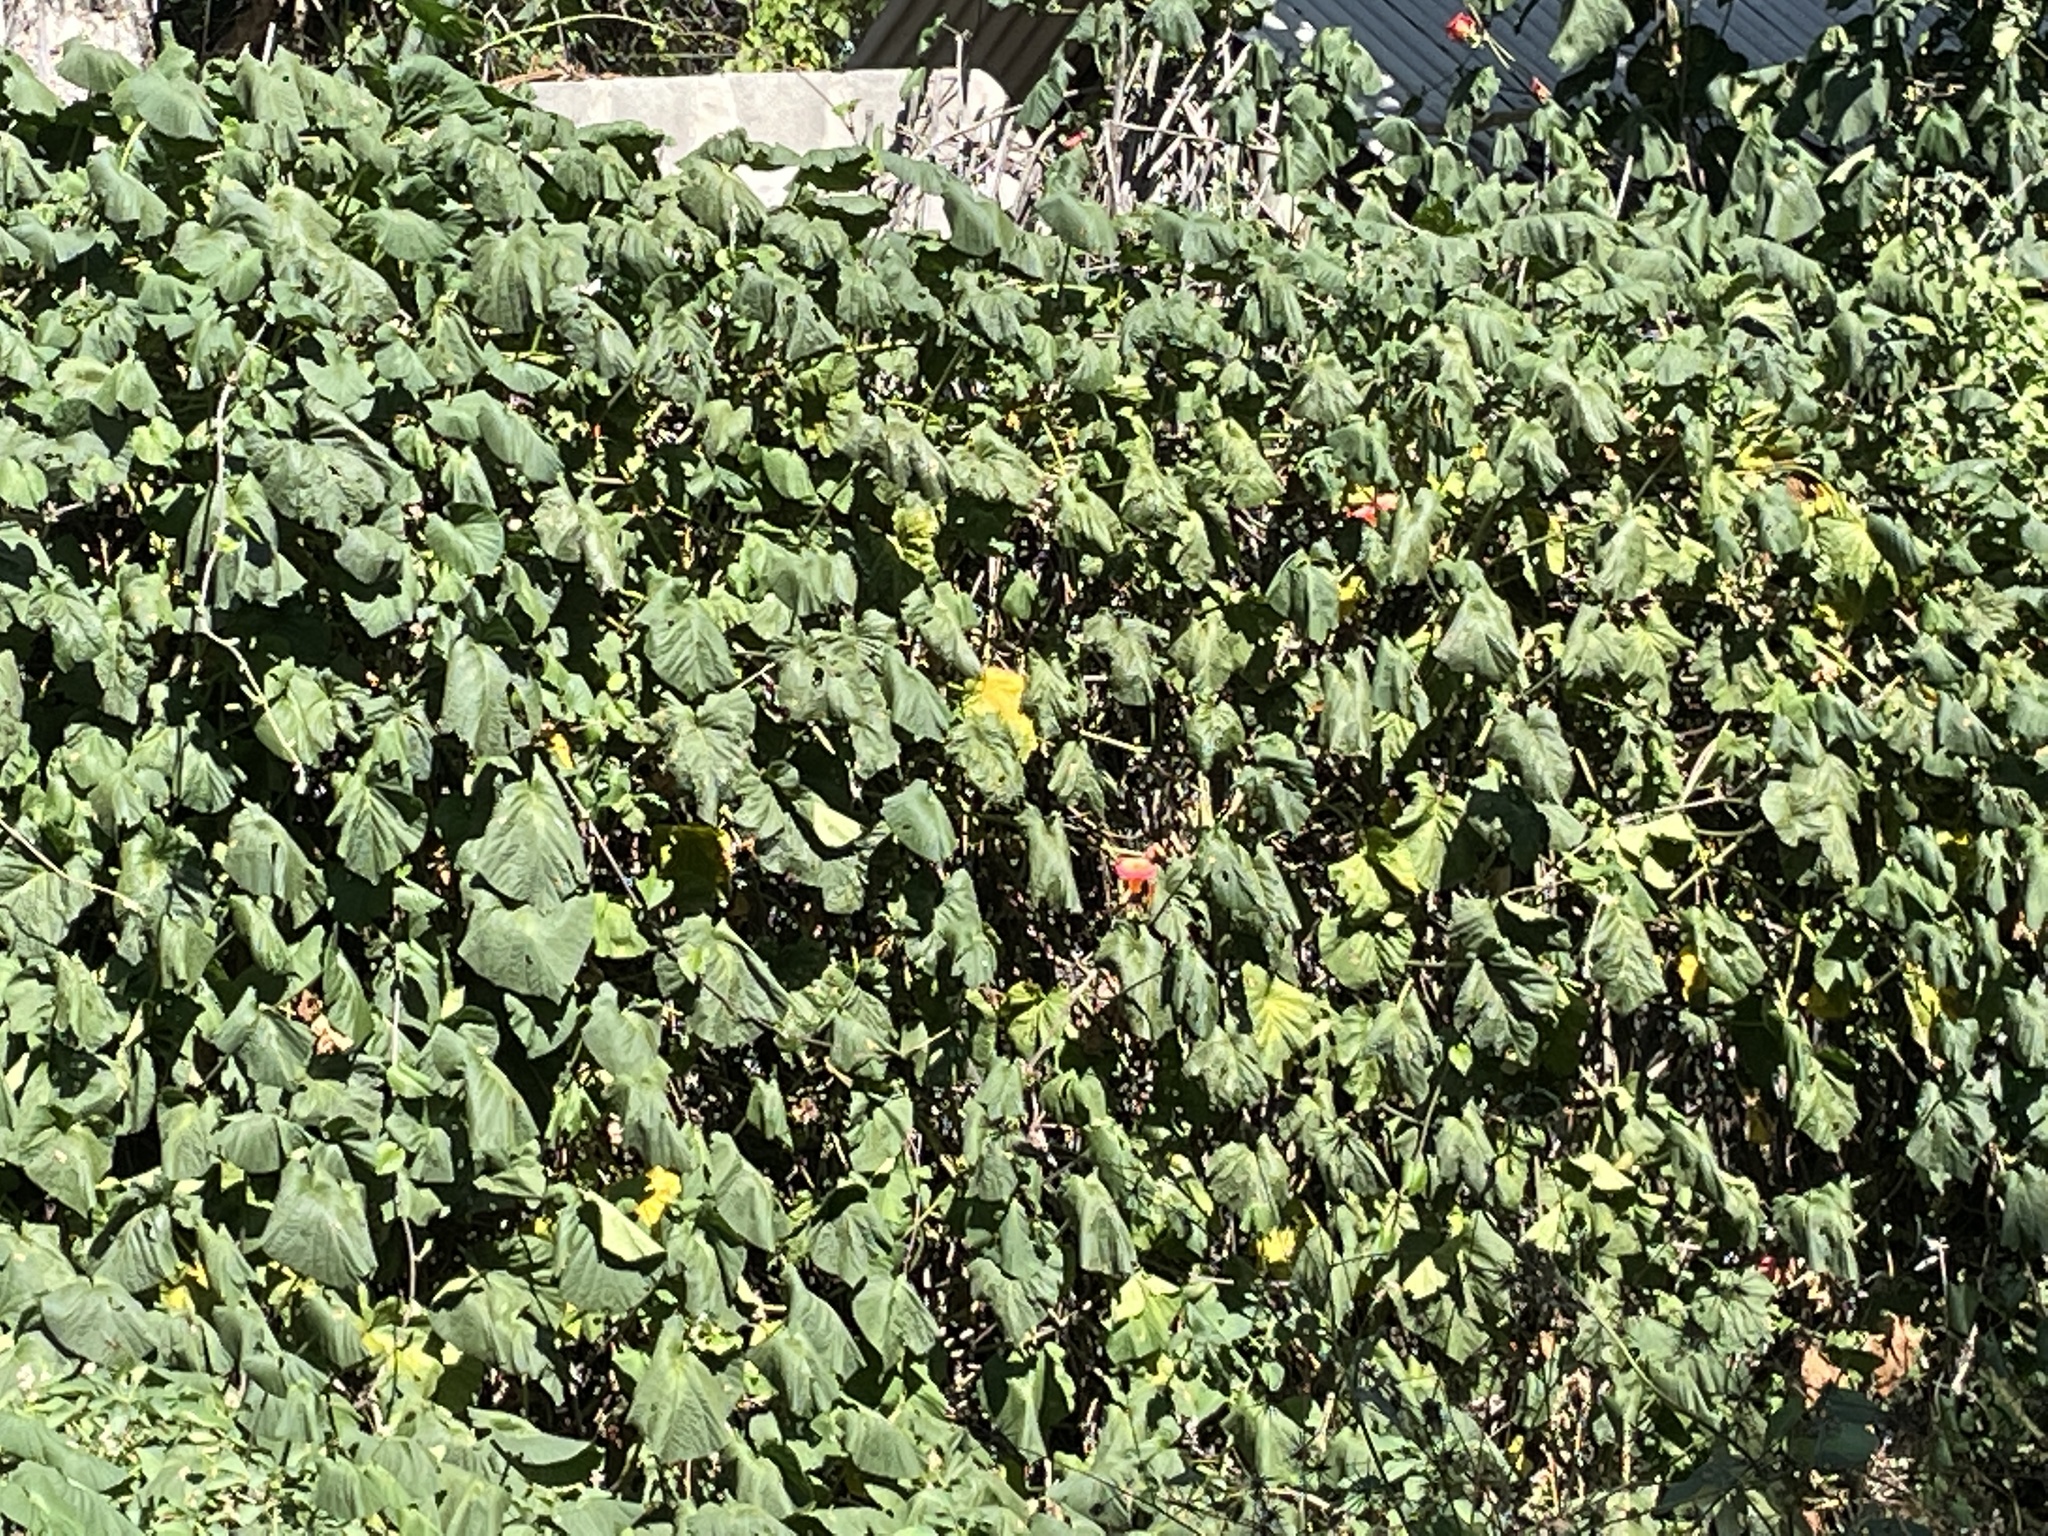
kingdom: Plantae
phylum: Tracheophyta
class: Magnoliopsida
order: Solanales
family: Convolvulaceae
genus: Stictocardia
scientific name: Stictocardia beraviensis
